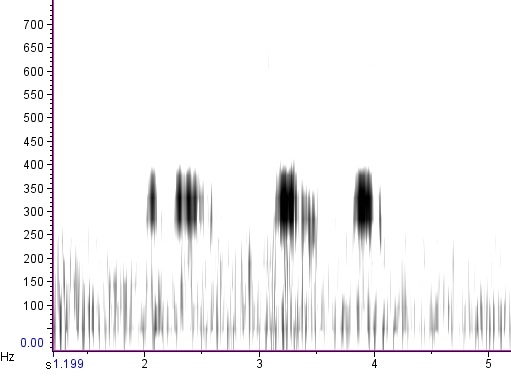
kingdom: Animalia
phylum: Chordata
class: Aves
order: Strigiformes
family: Strigidae
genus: Bubo
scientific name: Bubo virginianus
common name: Great horned owl
